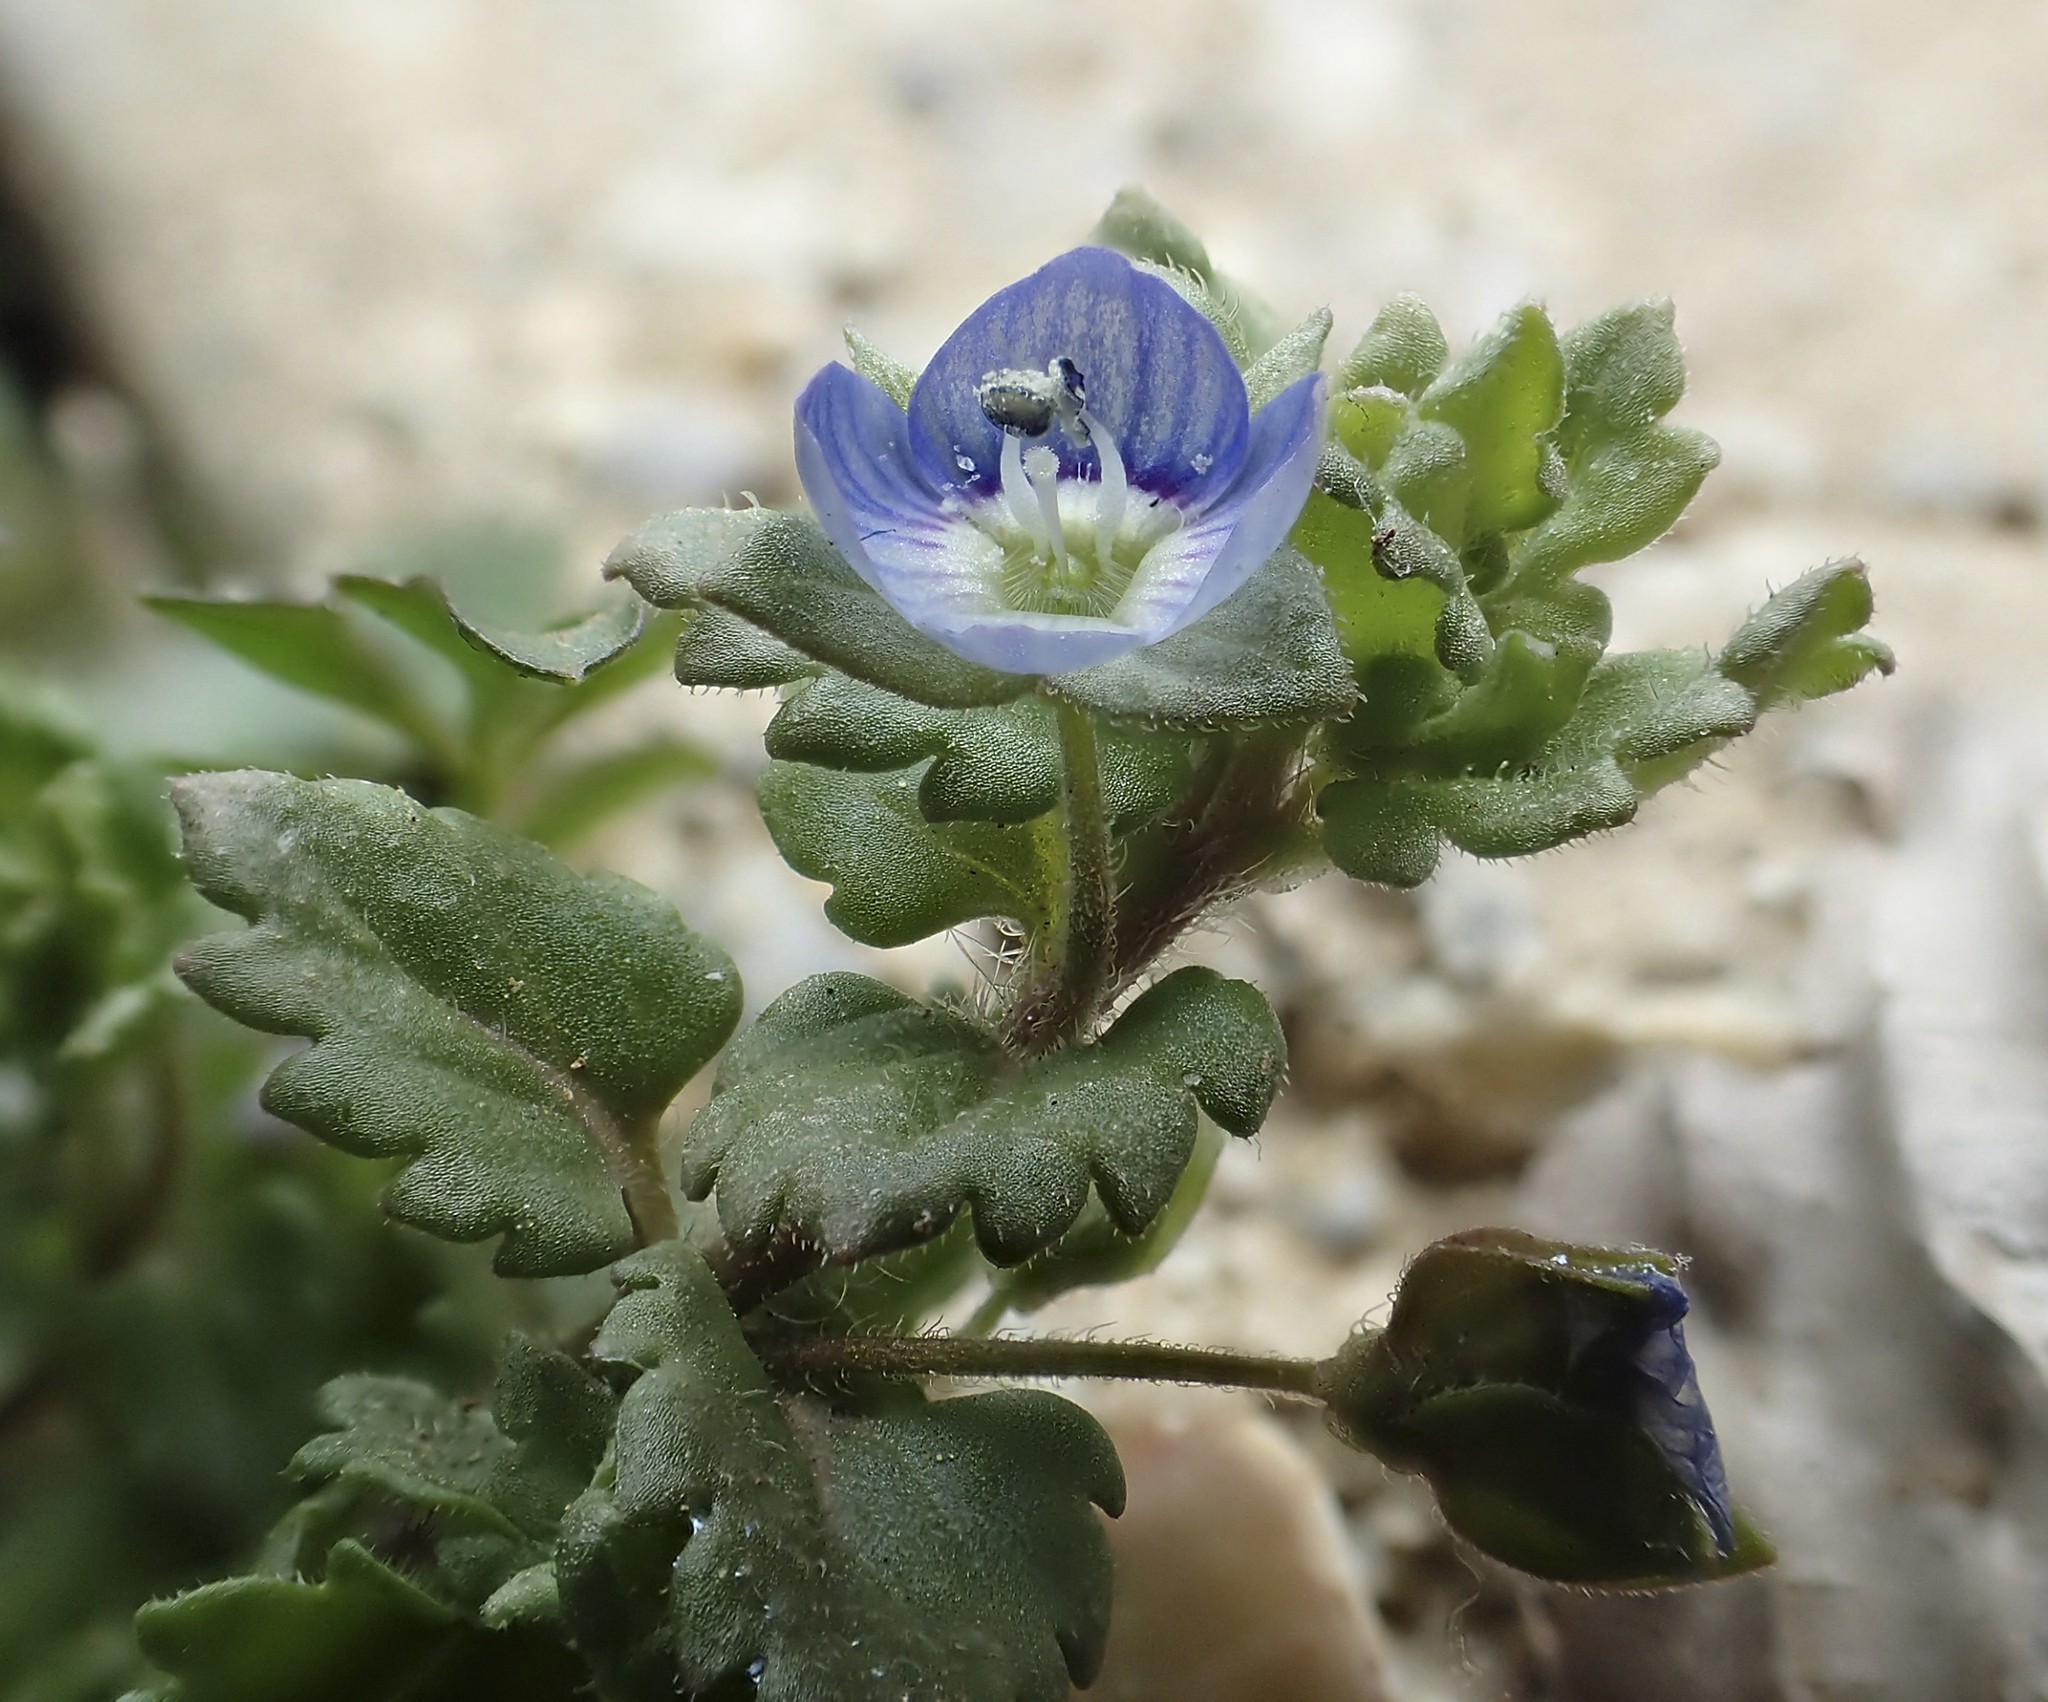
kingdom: Plantae
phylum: Tracheophyta
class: Magnoliopsida
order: Lamiales
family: Plantaginaceae
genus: Veronica
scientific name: Veronica polita
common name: Grey field-speedwell
